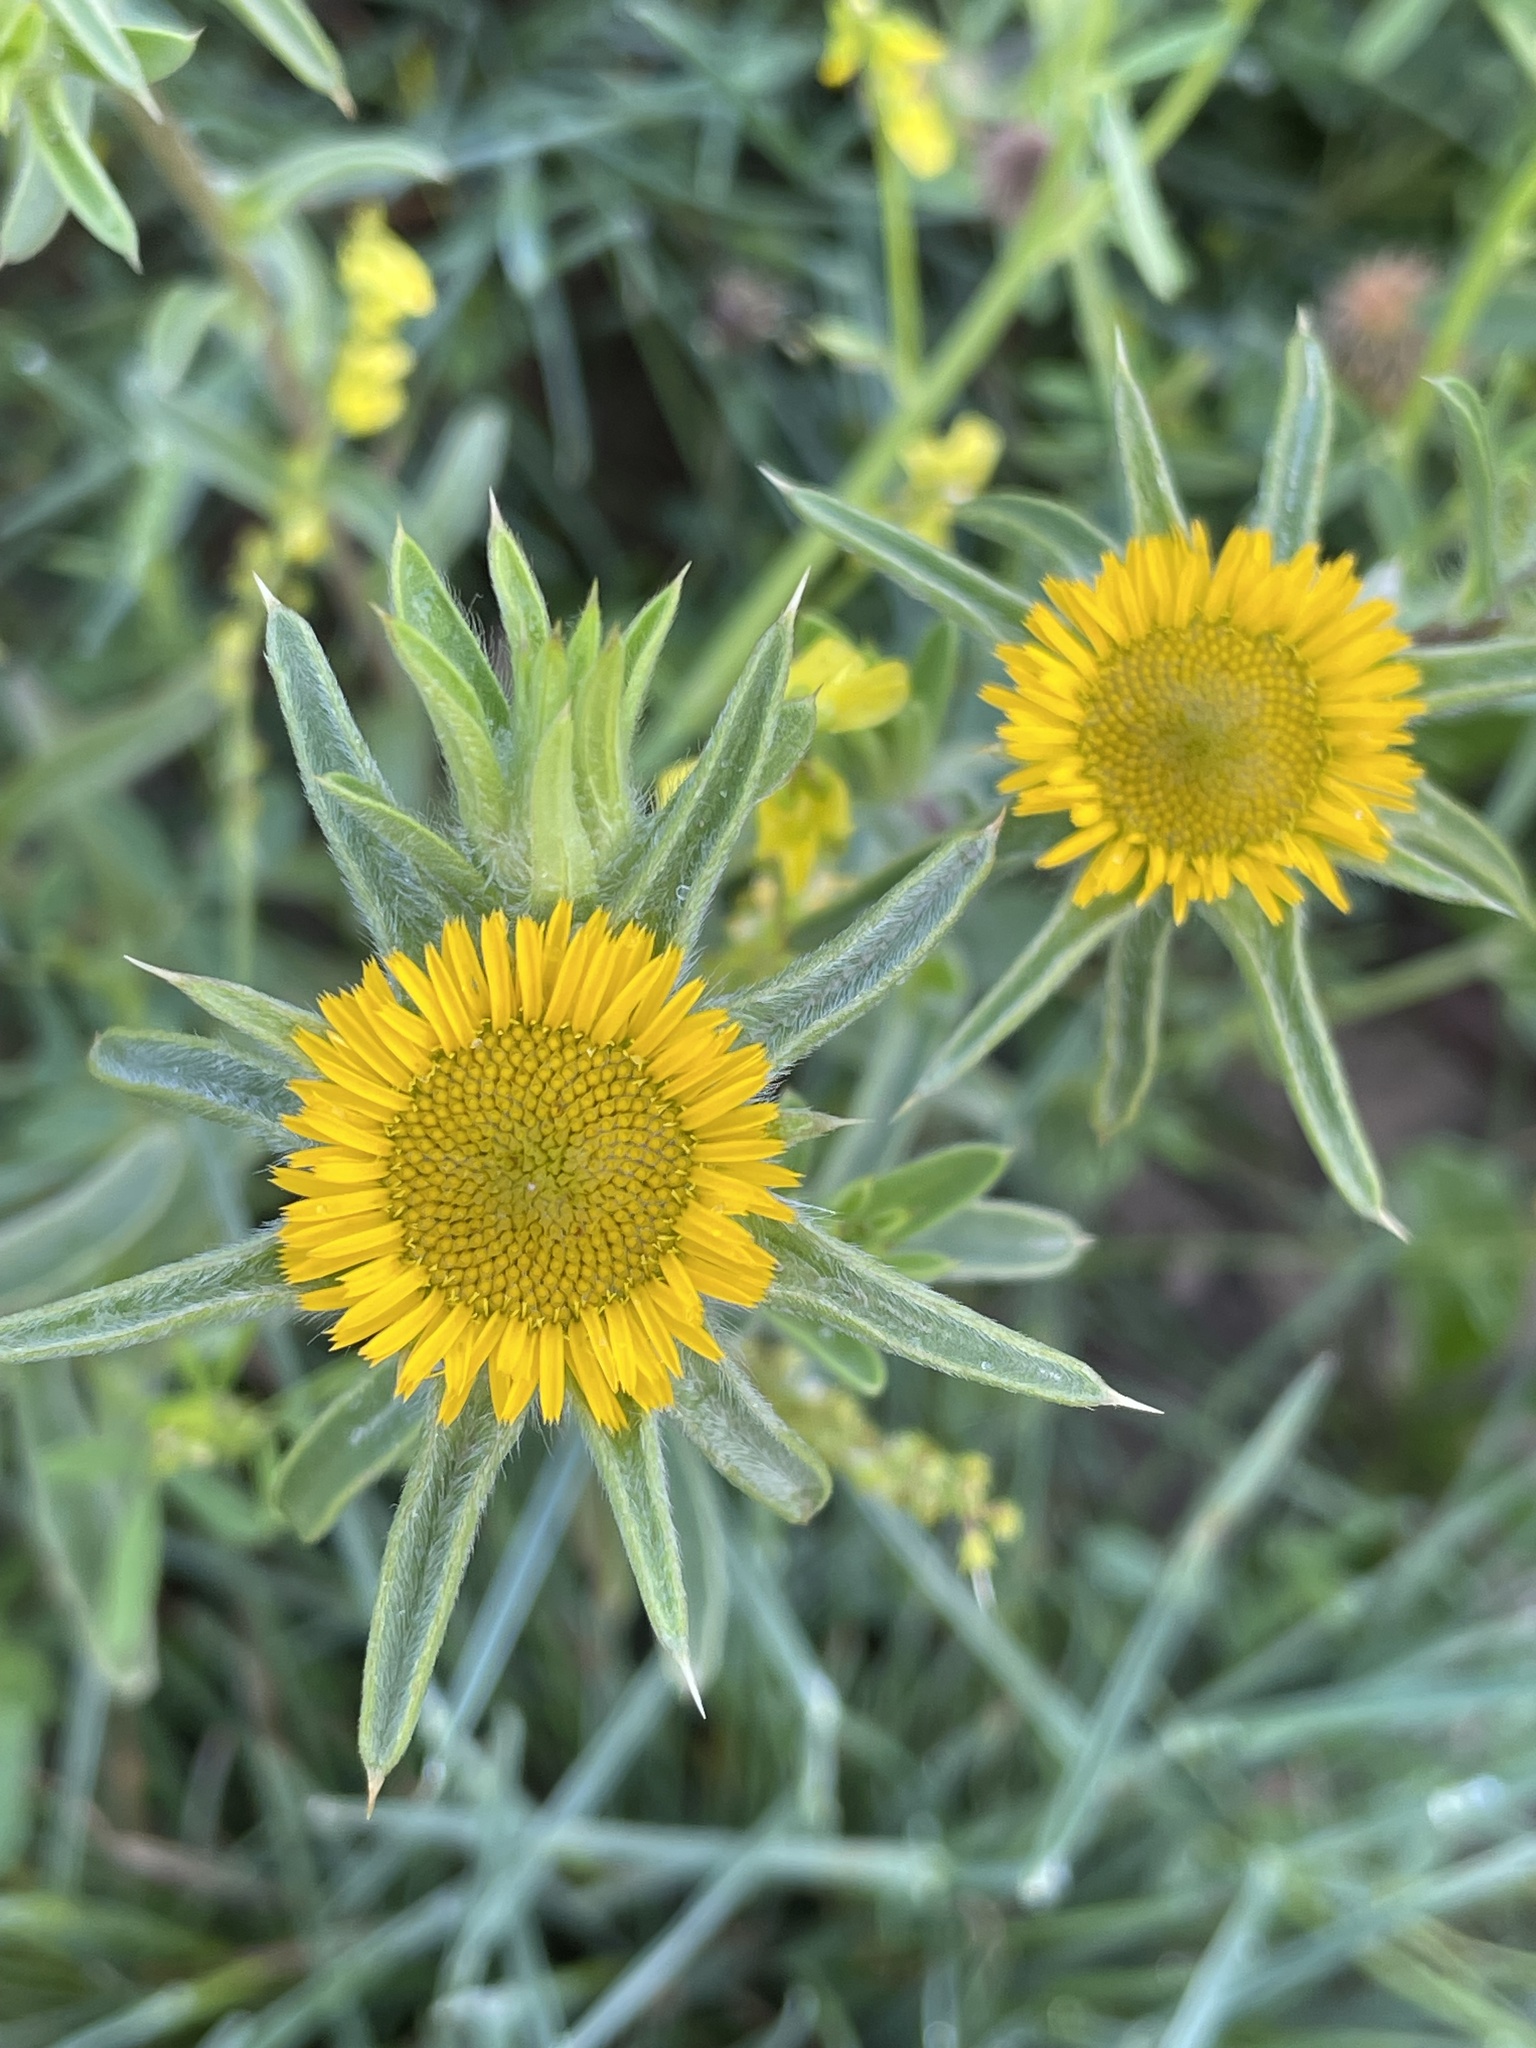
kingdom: Plantae
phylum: Tracheophyta
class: Magnoliopsida
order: Asterales
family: Asteraceae
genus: Pallenis
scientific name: Pallenis spinosa
